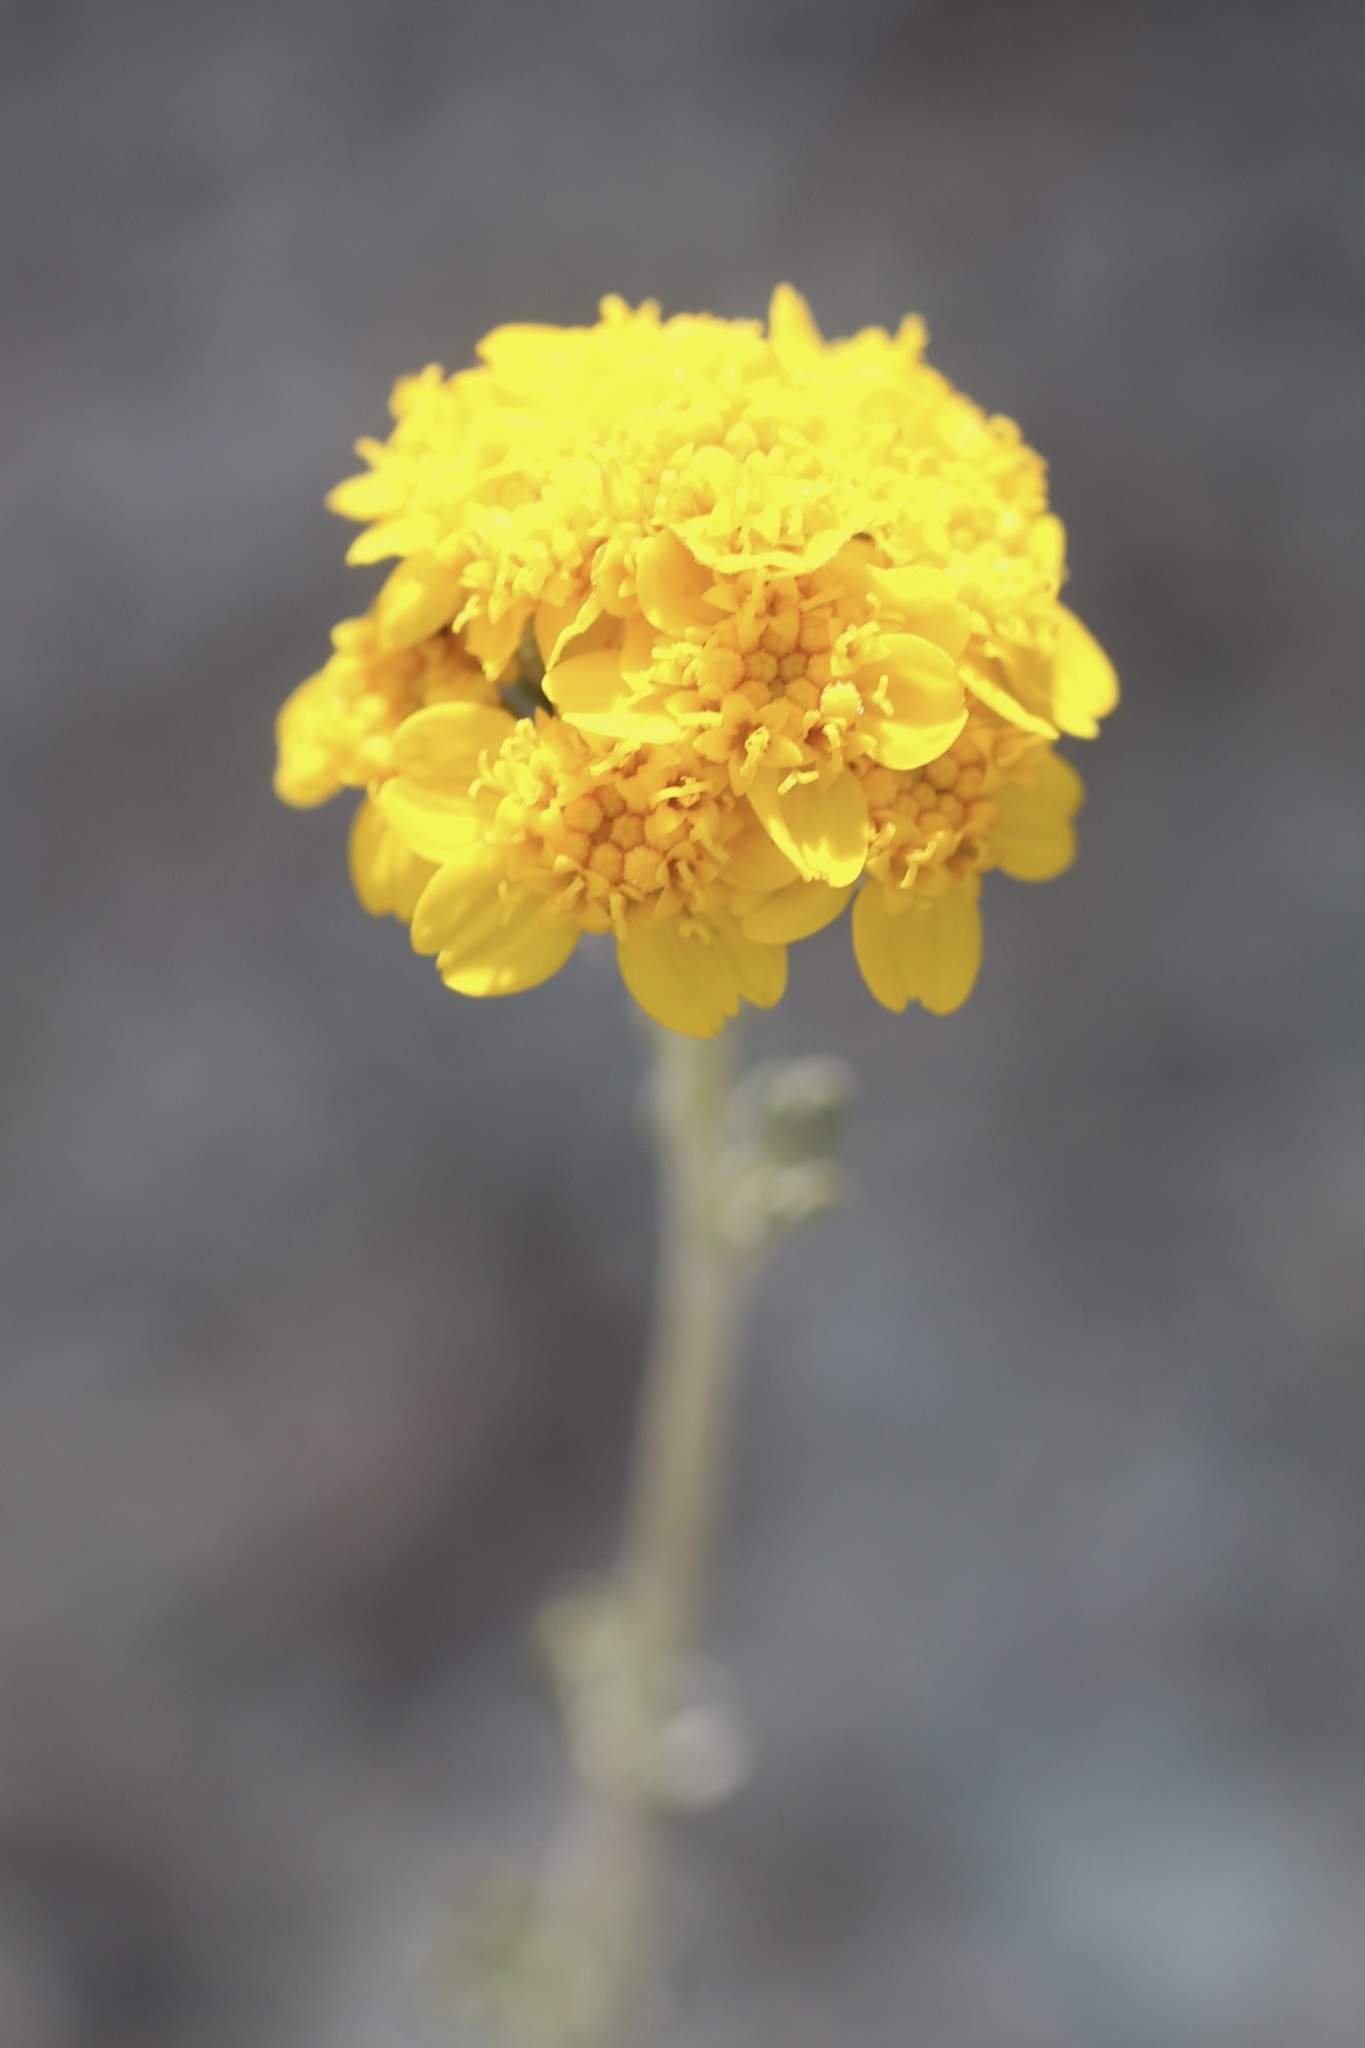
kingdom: Plantae
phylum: Tracheophyta
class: Magnoliopsida
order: Asterales
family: Asteraceae
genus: Eriophyllum
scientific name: Eriophyllum confertiflorum
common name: Golden-yarrow
